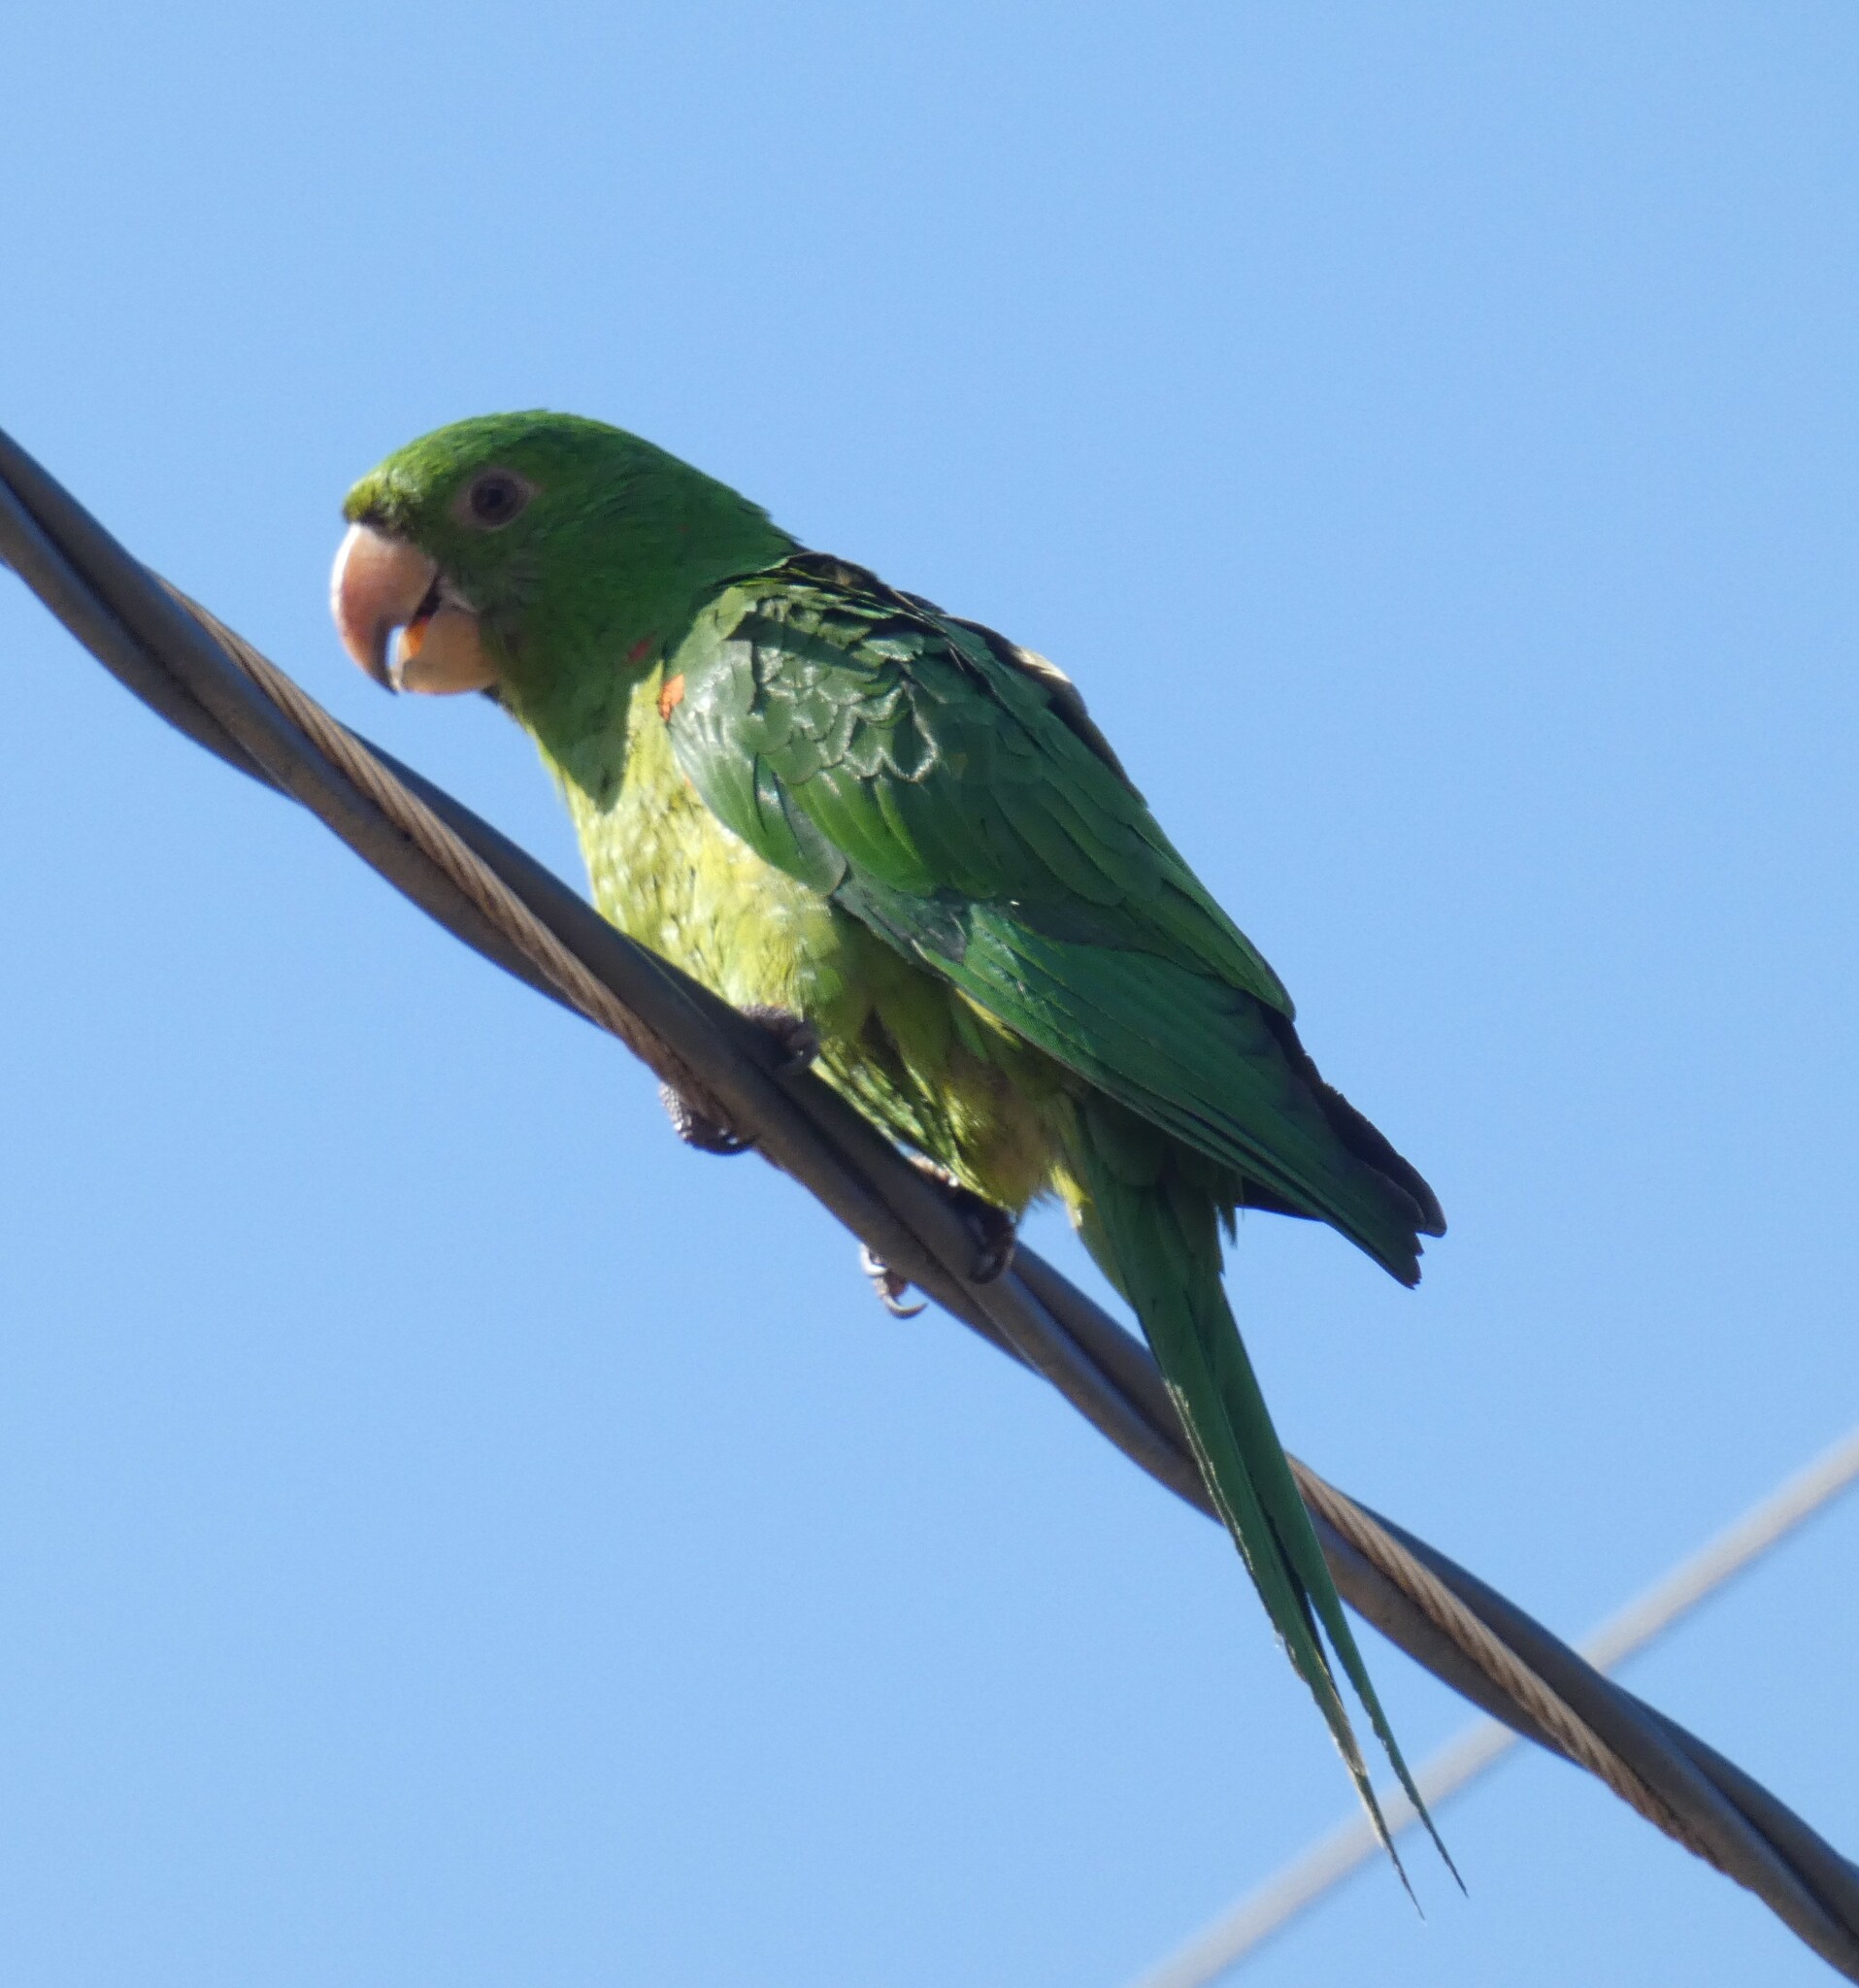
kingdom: Animalia
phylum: Chordata
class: Aves
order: Psittaciformes
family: Psittacidae
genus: Aratinga
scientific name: Aratinga leucophthalma
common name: White-eyed parakeet
